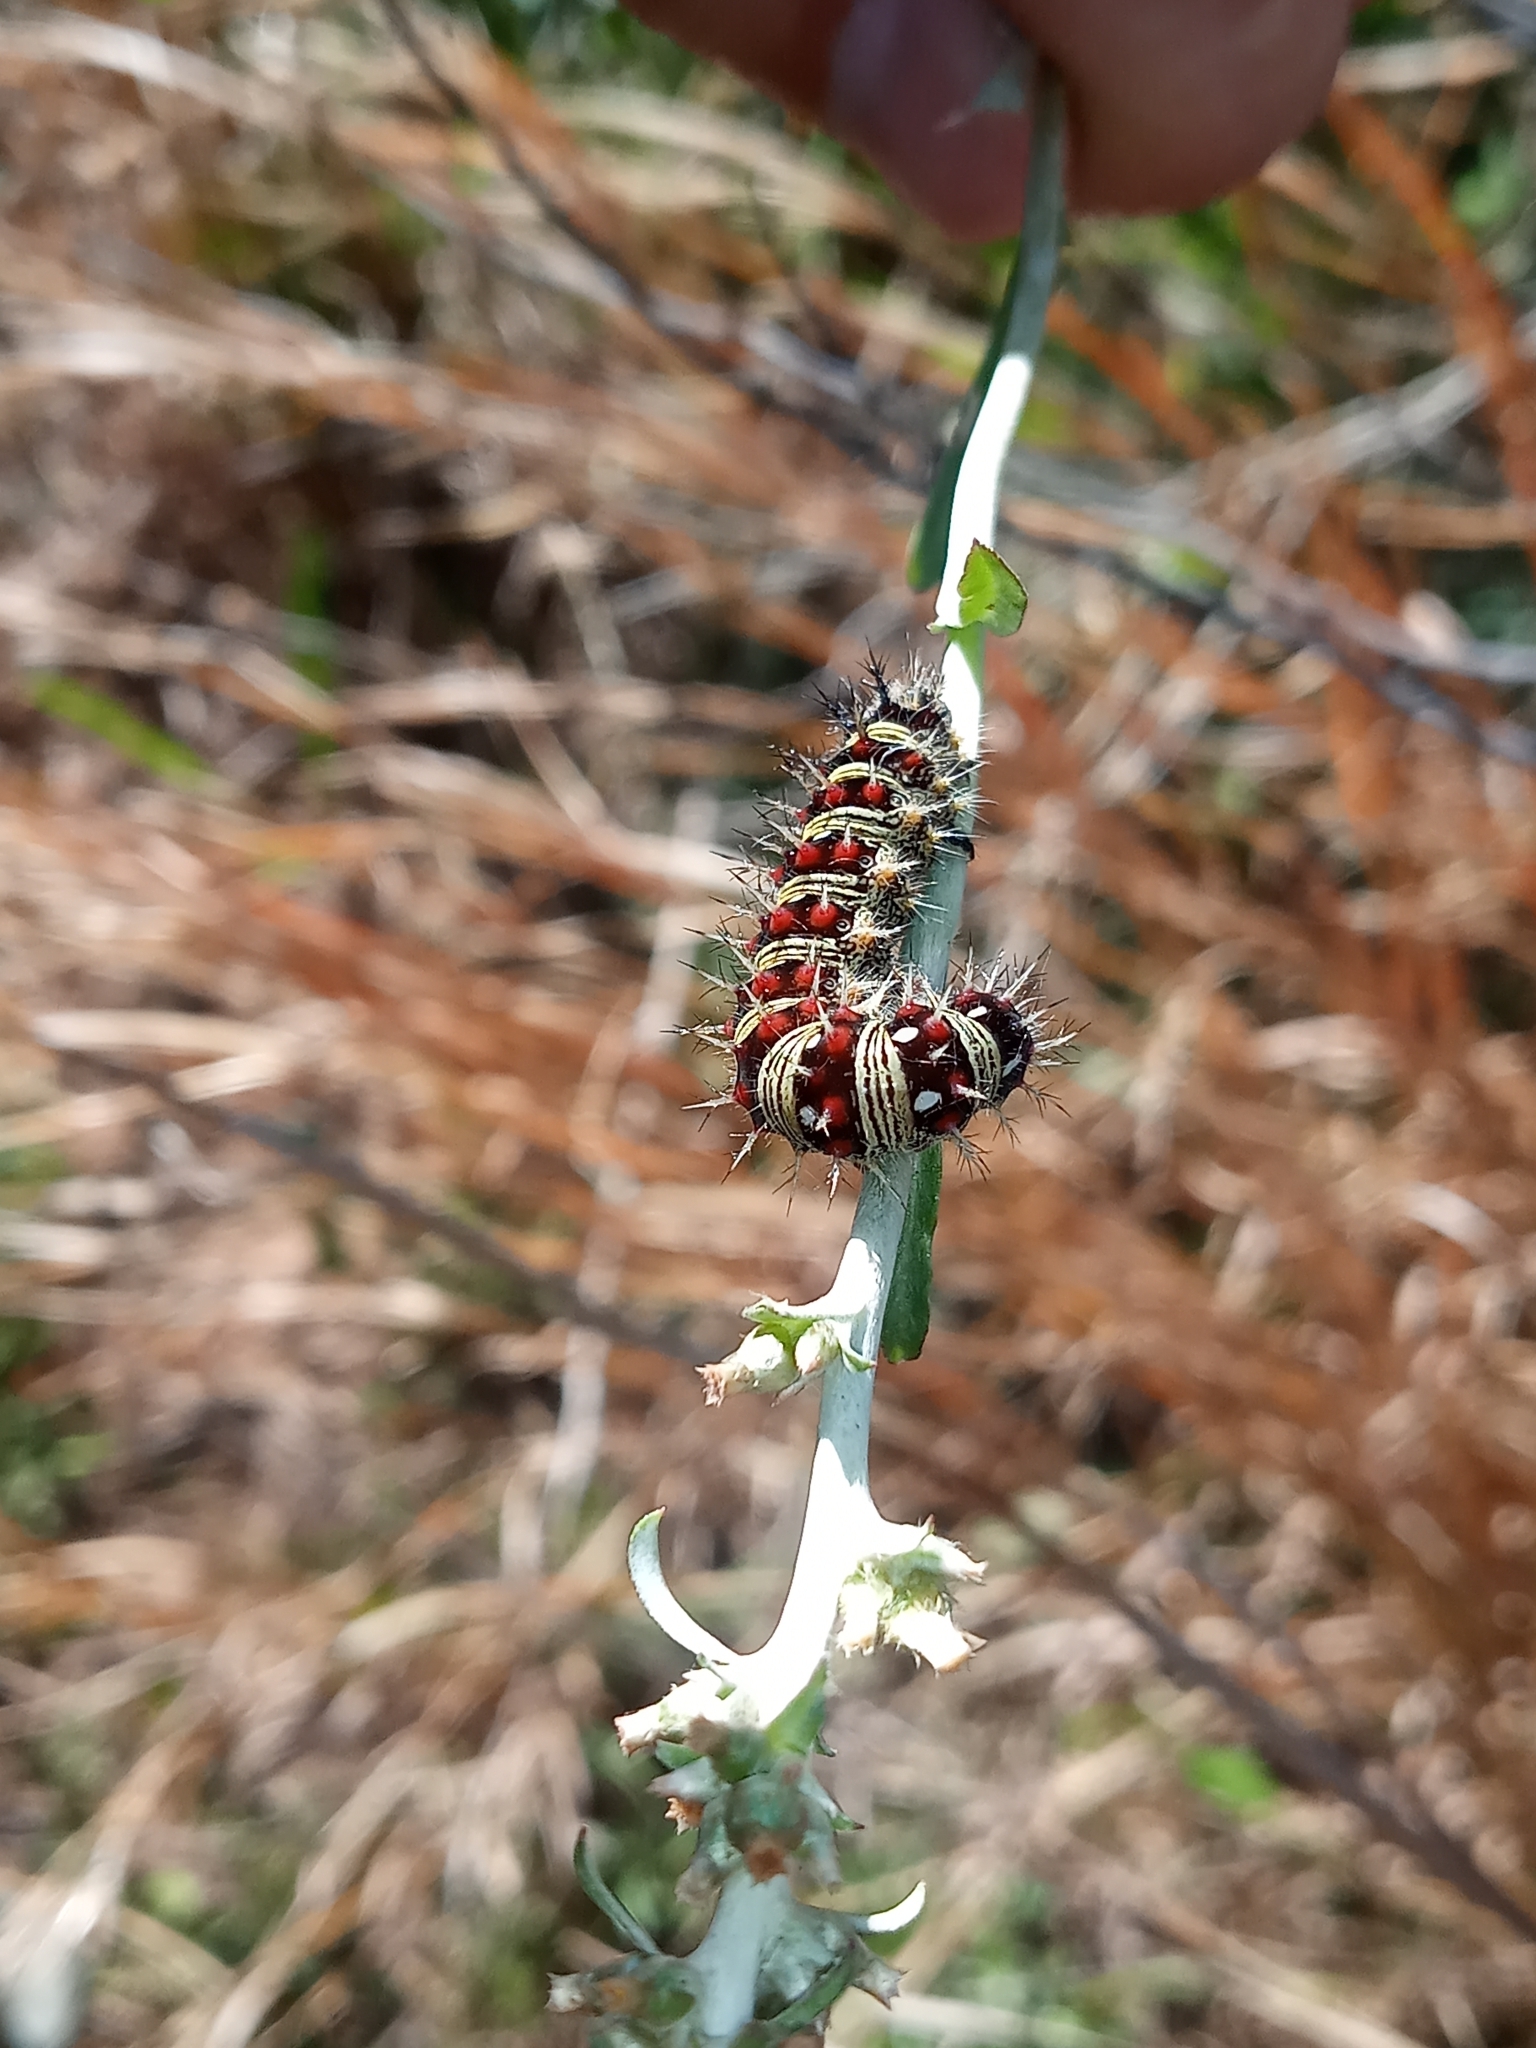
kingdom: Animalia
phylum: Arthropoda
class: Insecta
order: Lepidoptera
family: Nymphalidae
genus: Vanessa
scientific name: Vanessa virginiensis
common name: American lady
